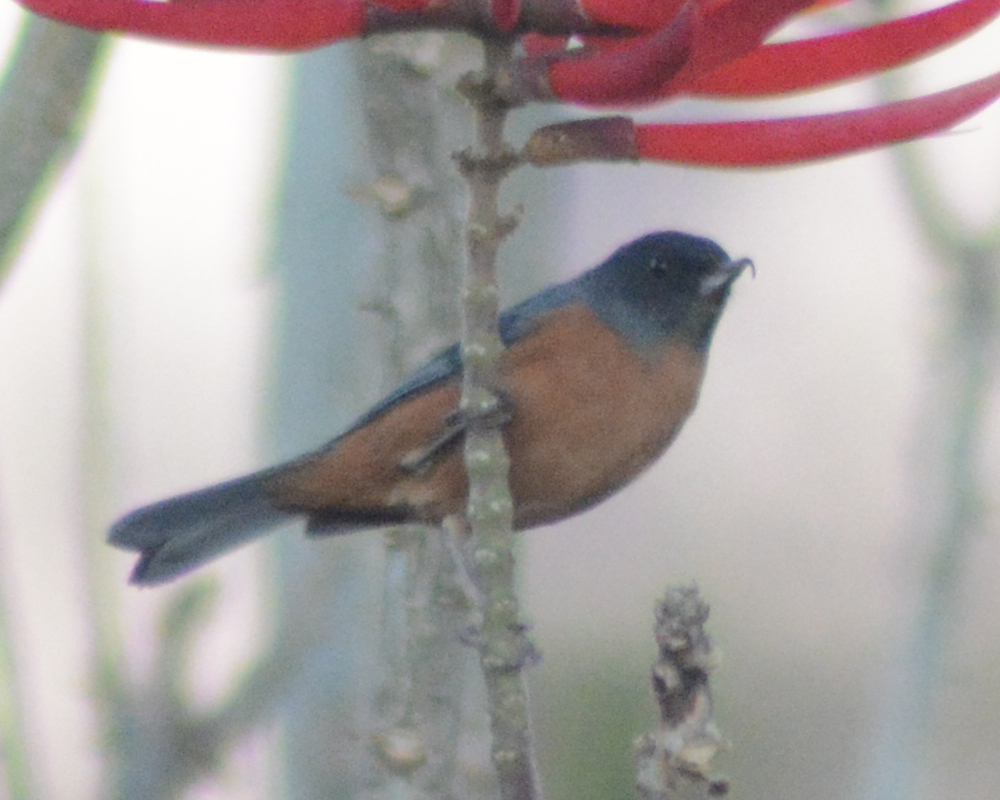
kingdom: Animalia
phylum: Chordata
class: Aves
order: Passeriformes
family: Thraupidae
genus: Diglossa
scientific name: Diglossa baritula
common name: Cinnamon-bellied flowerpiercer
